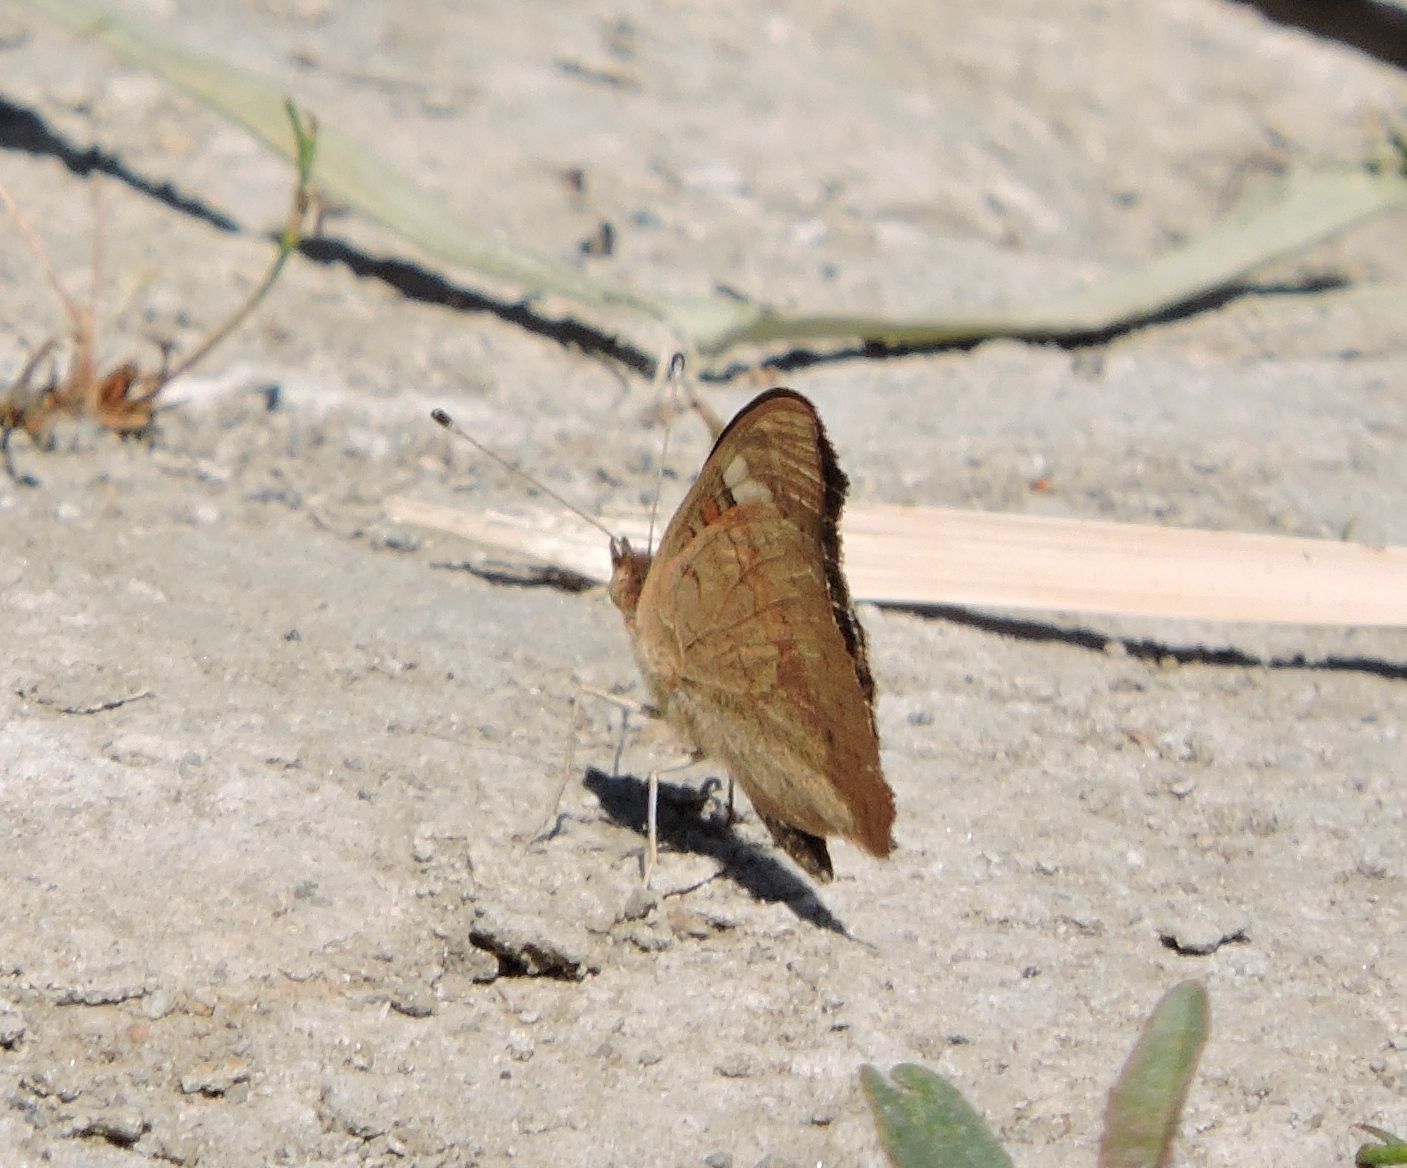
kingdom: Animalia
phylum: Arthropoda
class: Insecta
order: Lepidoptera
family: Nymphalidae
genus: Junonia
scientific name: Junonia grisea
